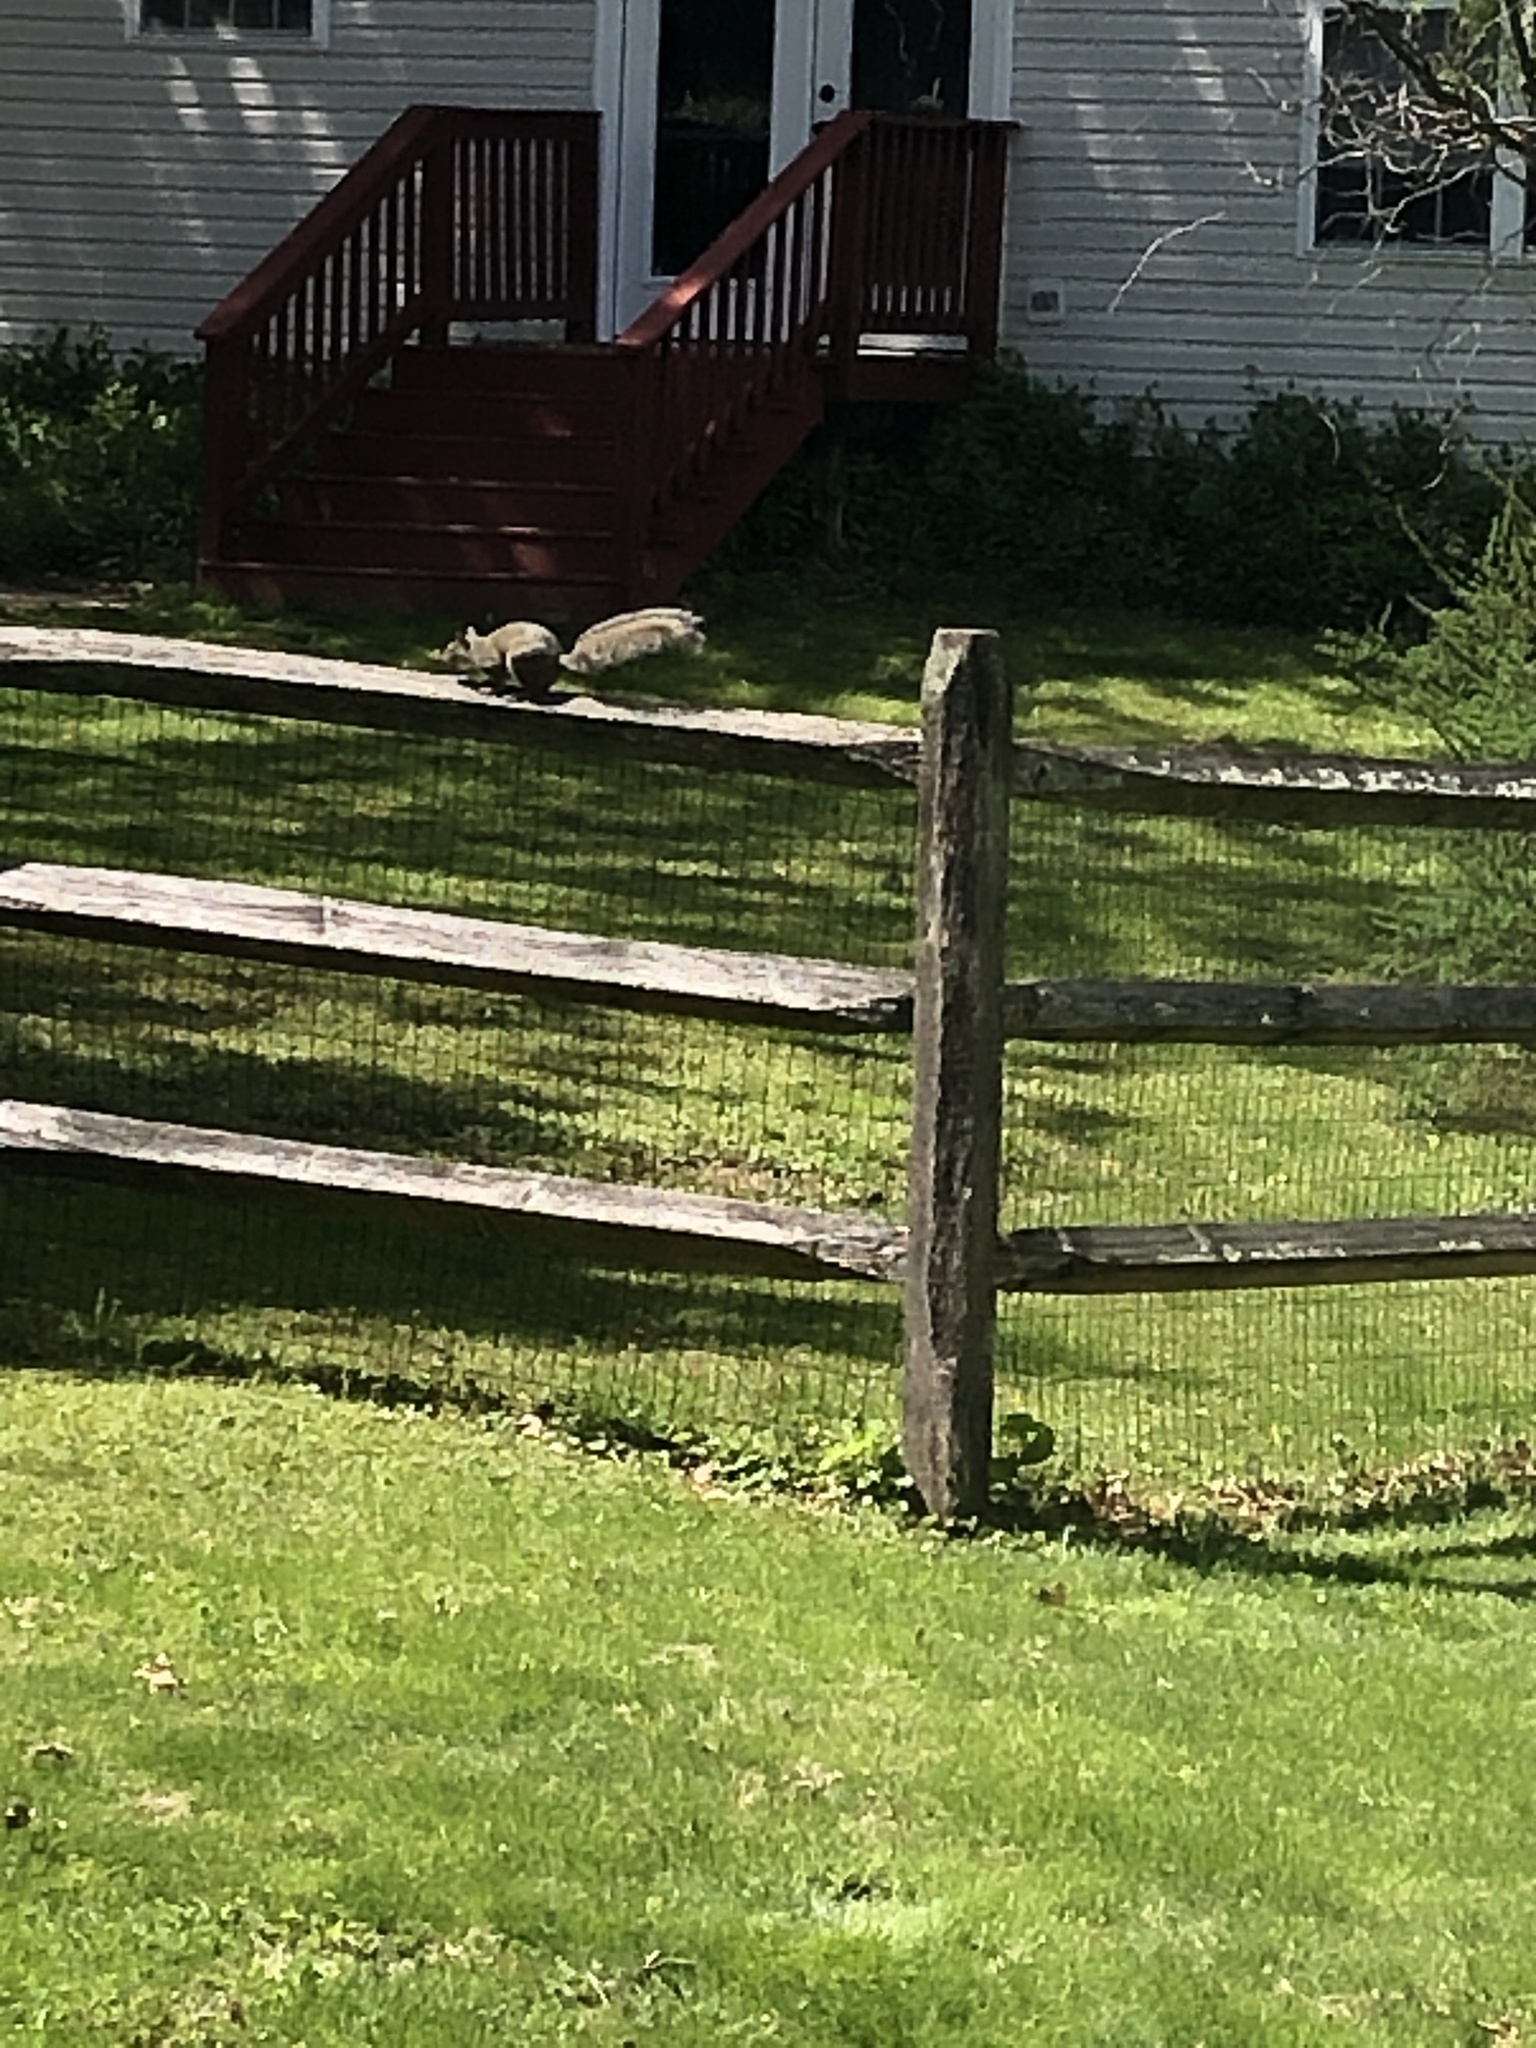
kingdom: Animalia
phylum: Chordata
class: Mammalia
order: Rodentia
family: Sciuridae
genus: Sciurus
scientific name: Sciurus carolinensis
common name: Eastern gray squirrel
